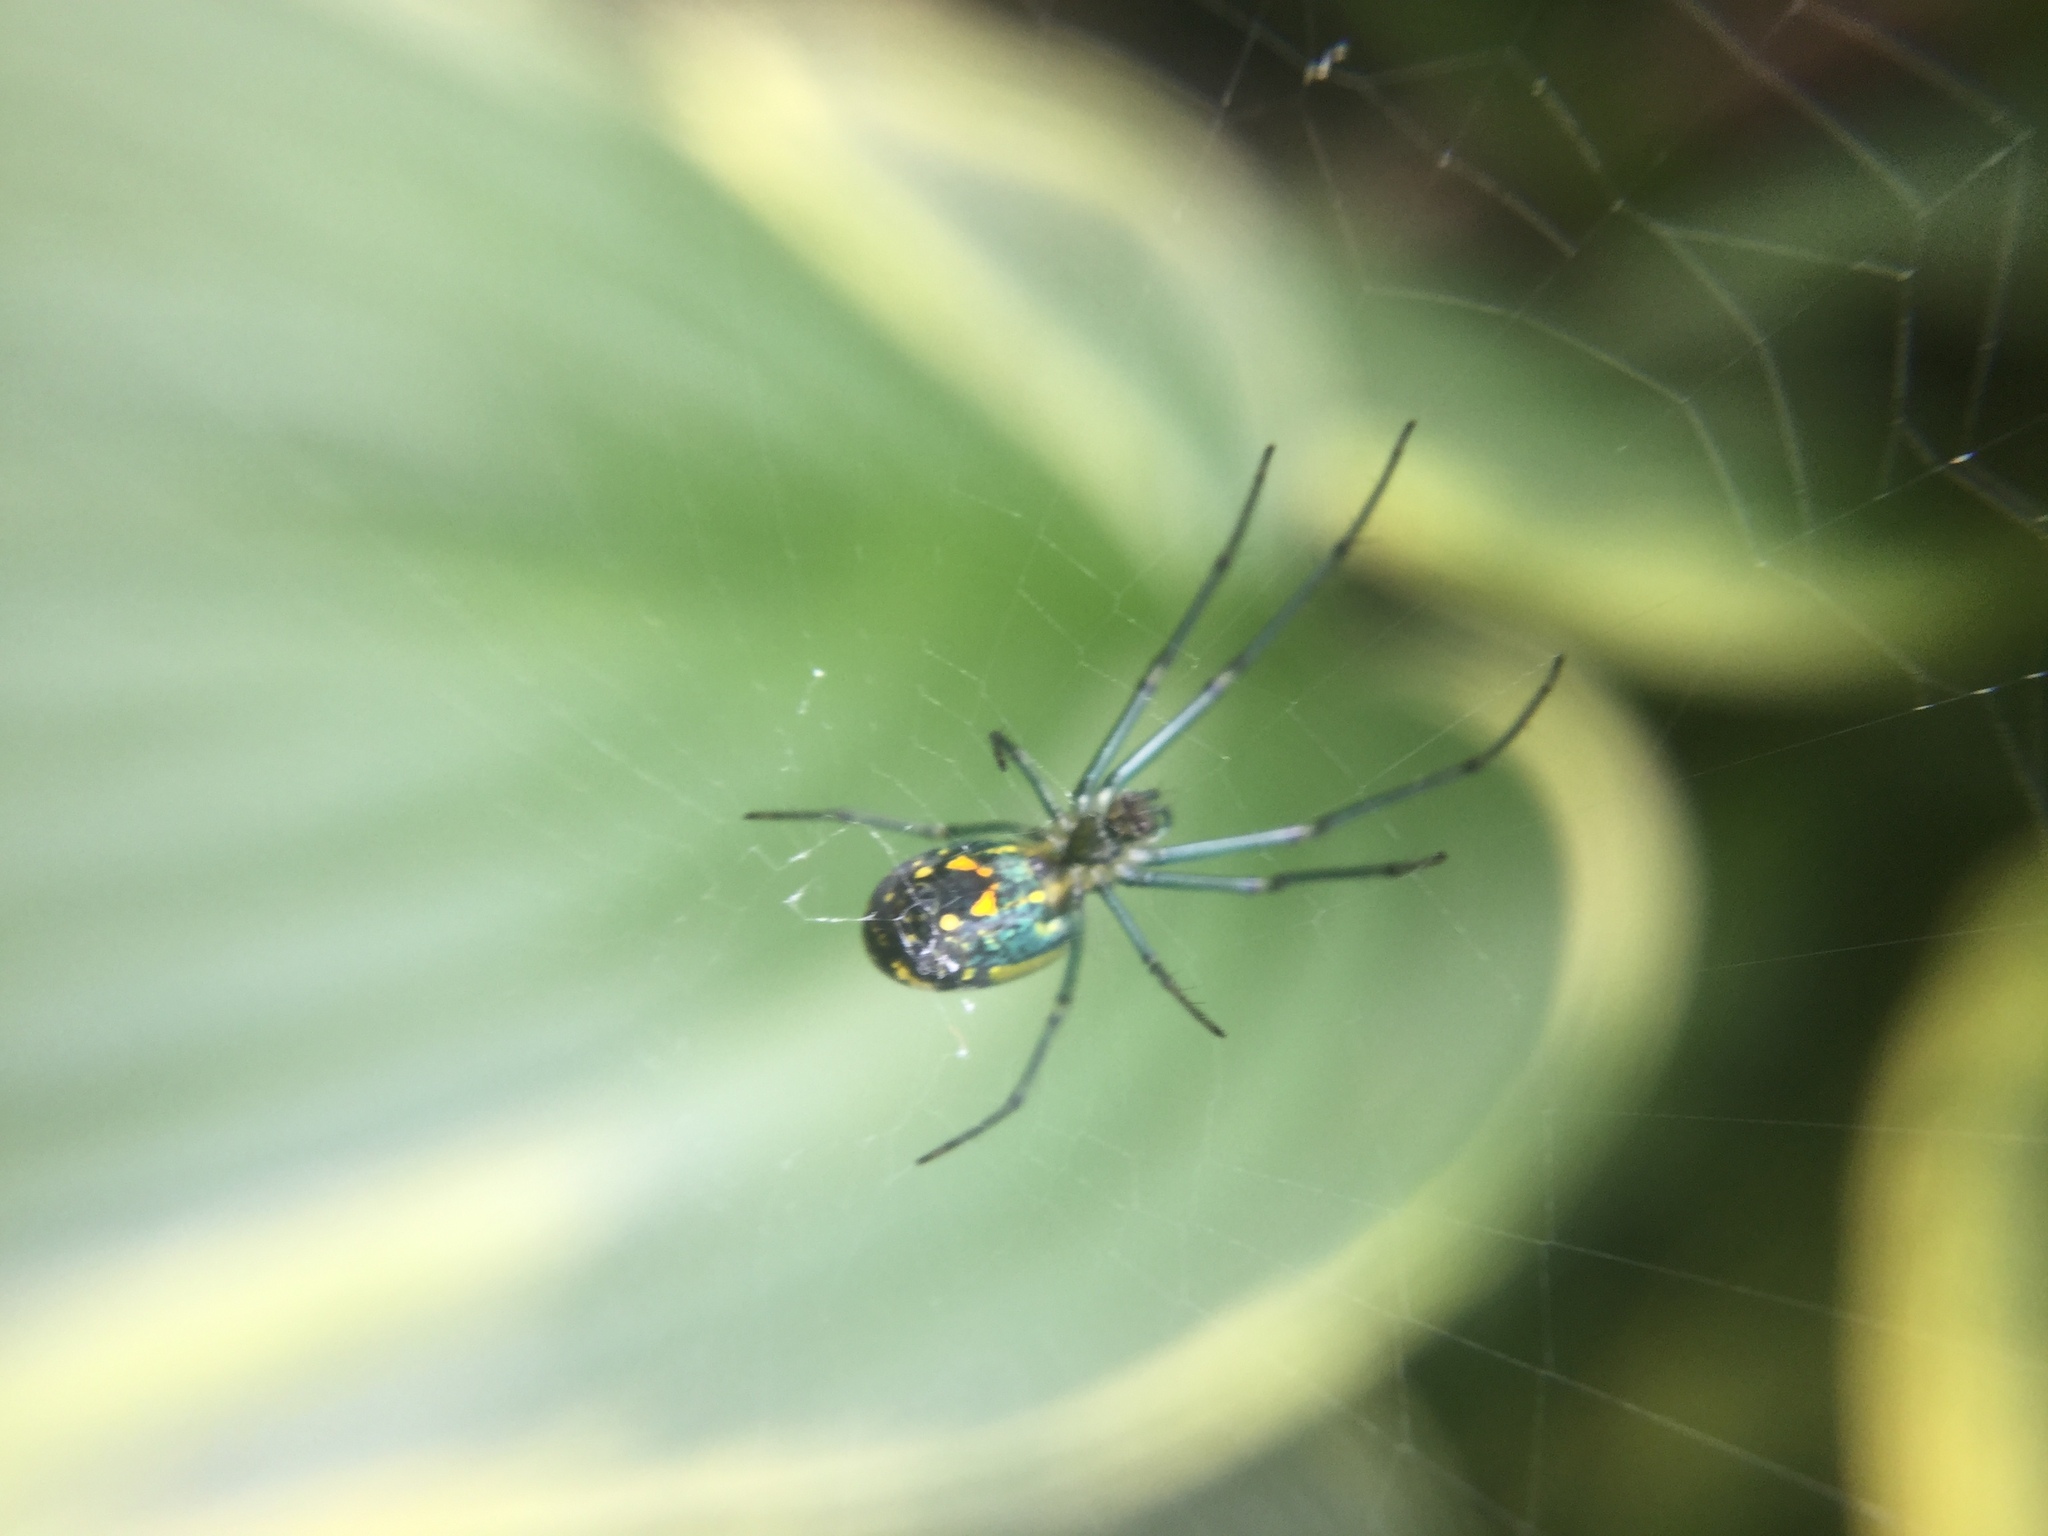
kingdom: Animalia
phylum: Arthropoda
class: Arachnida
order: Araneae
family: Tetragnathidae
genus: Leucauge
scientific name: Leucauge venusta
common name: Longjawed orb weavers
